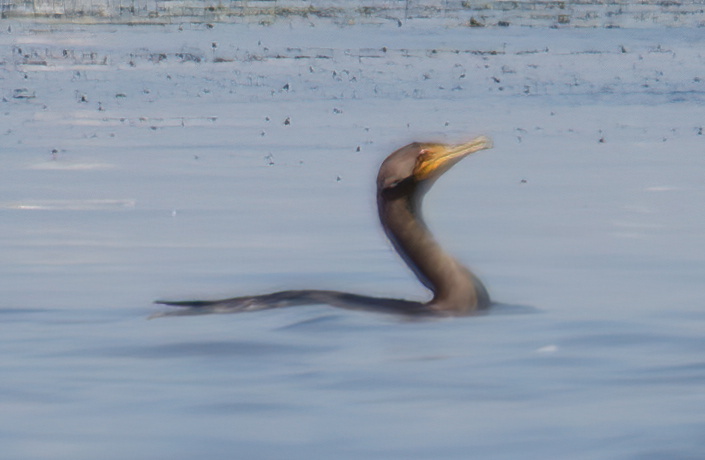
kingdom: Animalia
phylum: Chordata
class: Aves
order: Suliformes
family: Phalacrocoracidae
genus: Phalacrocorax
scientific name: Phalacrocorax auritus
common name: Double-crested cormorant
